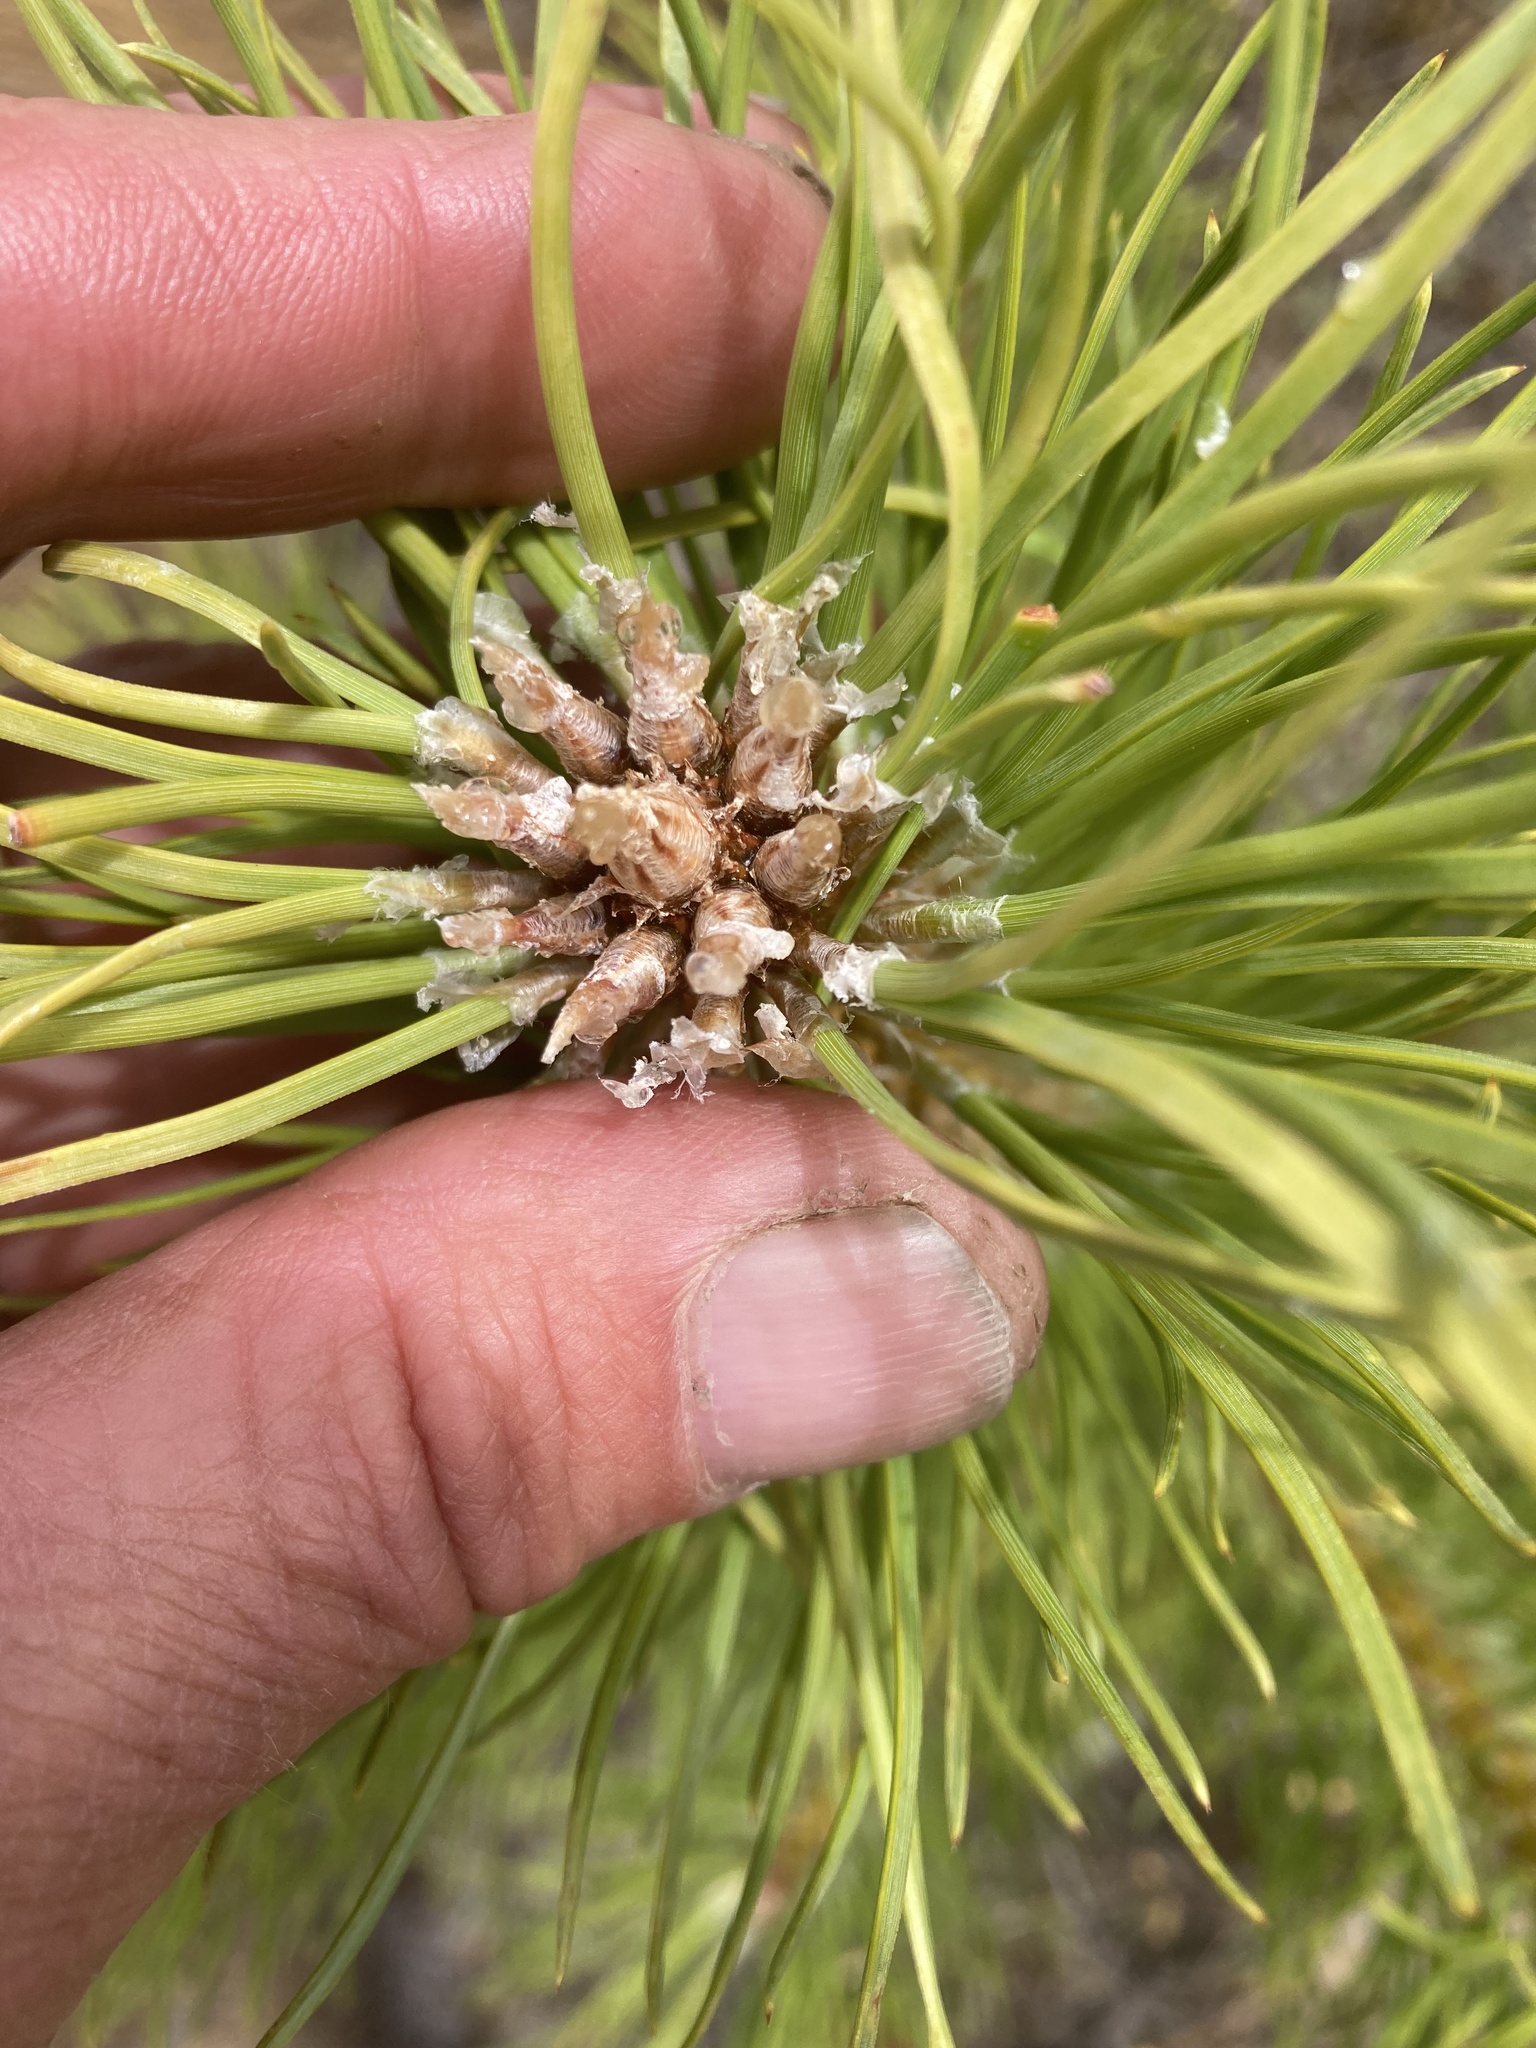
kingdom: Plantae
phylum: Tracheophyta
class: Pinopsida
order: Pinales
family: Pinaceae
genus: Pinus
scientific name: Pinus nigra
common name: Austrian pine
